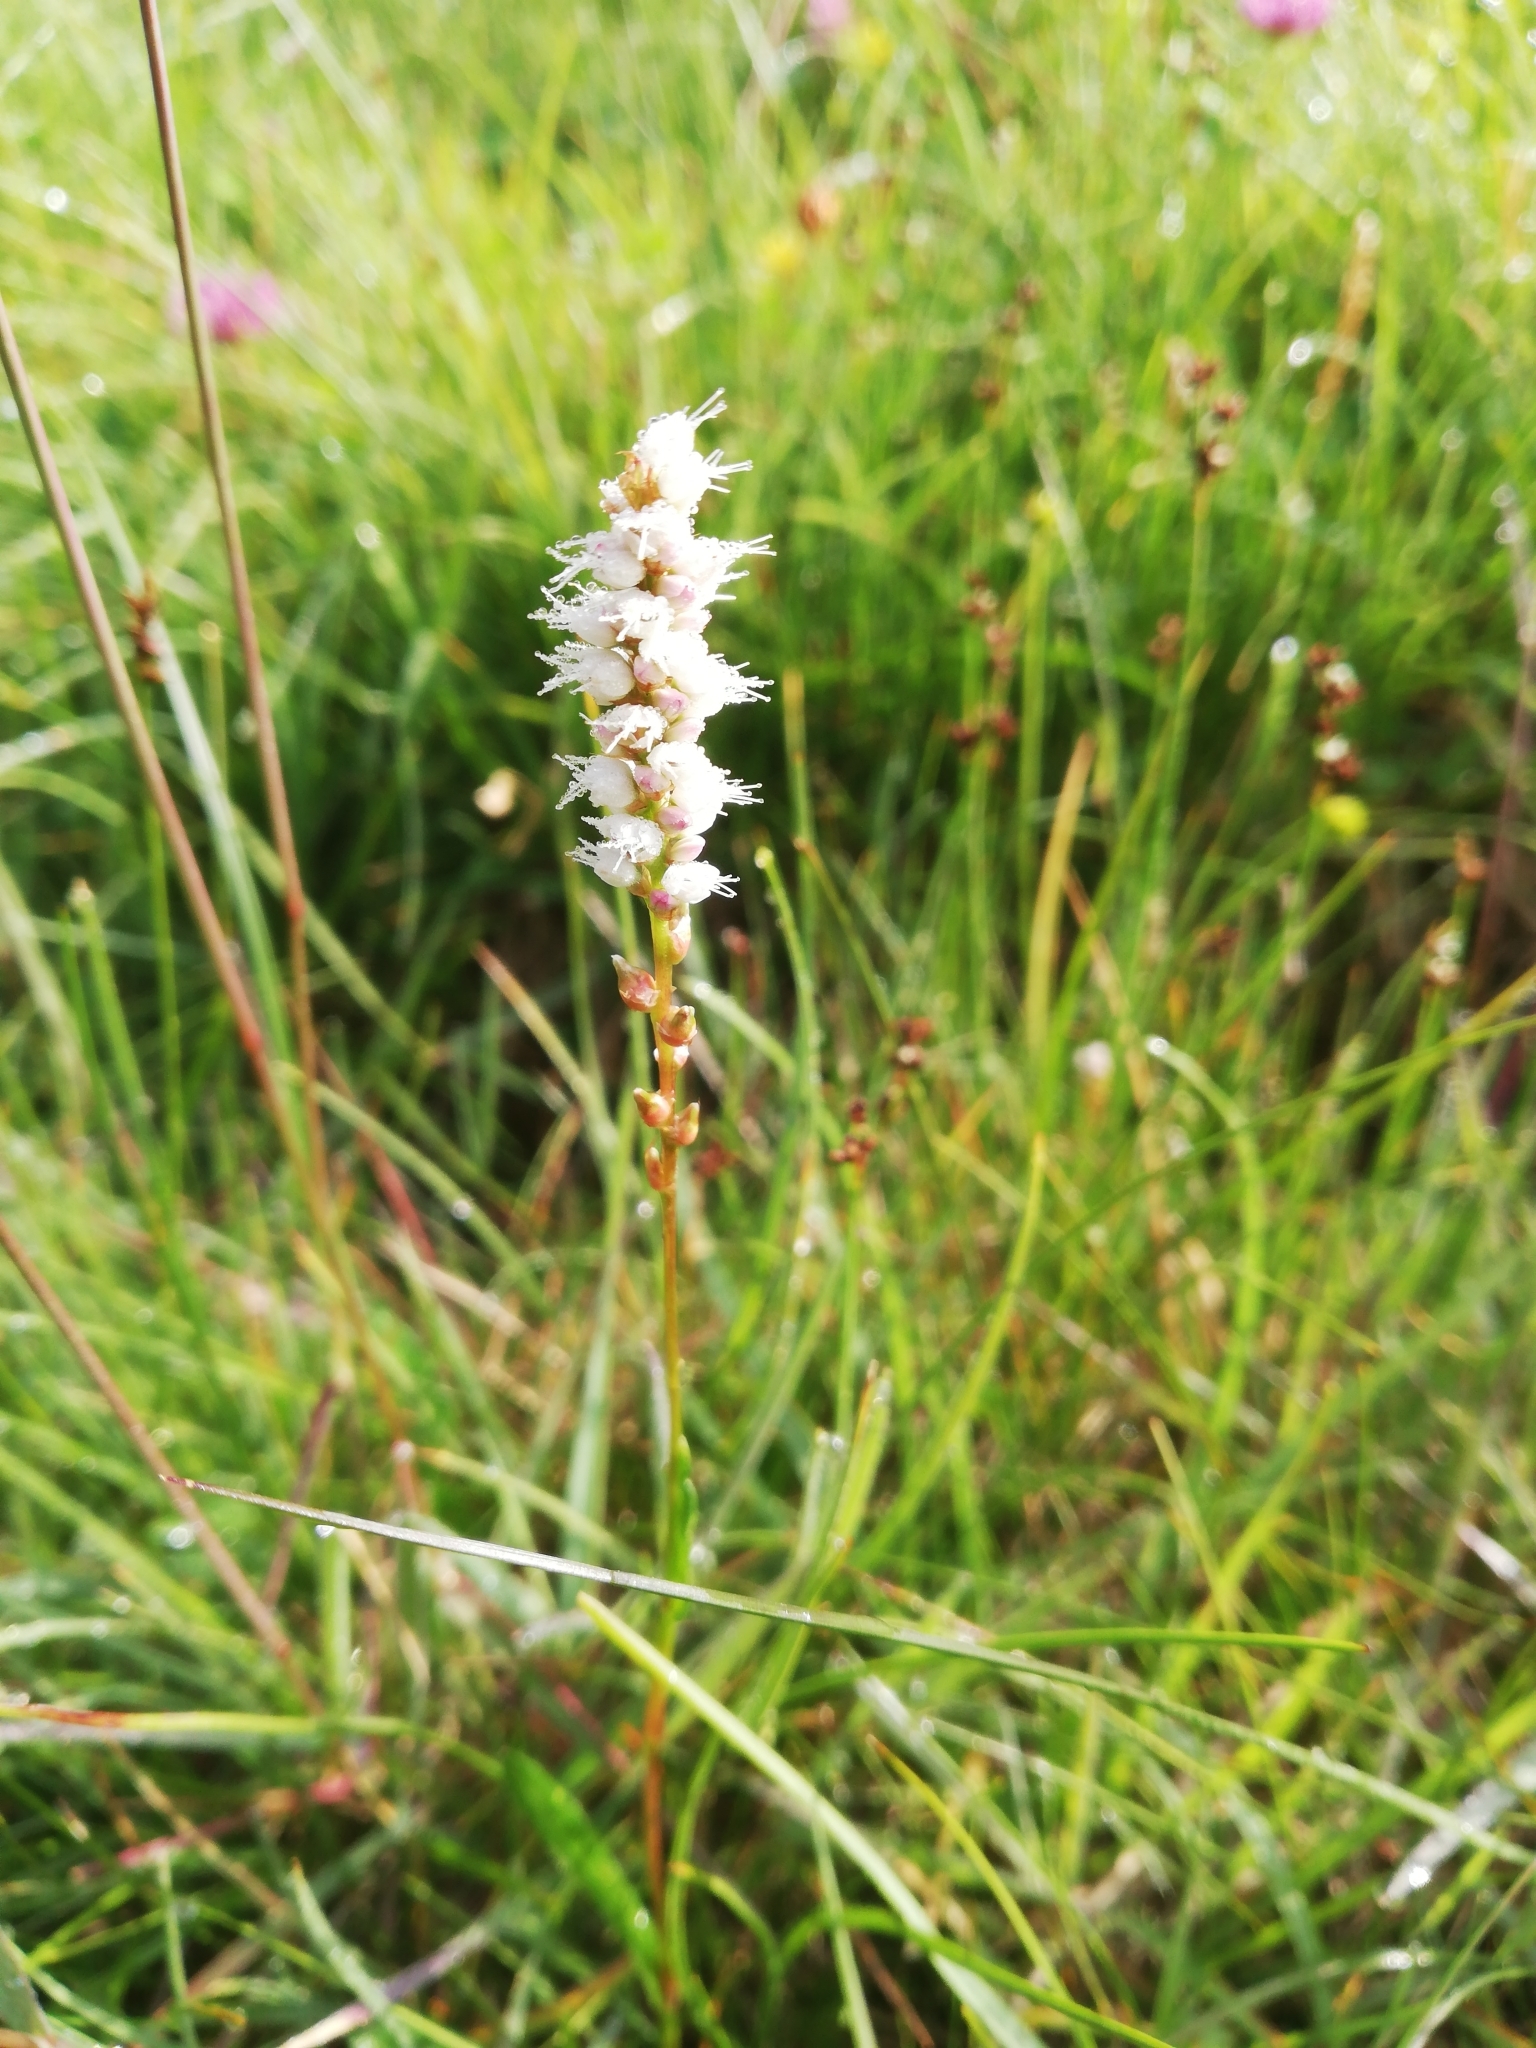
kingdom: Plantae
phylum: Tracheophyta
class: Magnoliopsida
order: Caryophyllales
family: Polygonaceae
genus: Bistorta
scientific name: Bistorta vivipara
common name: Alpine bistort
